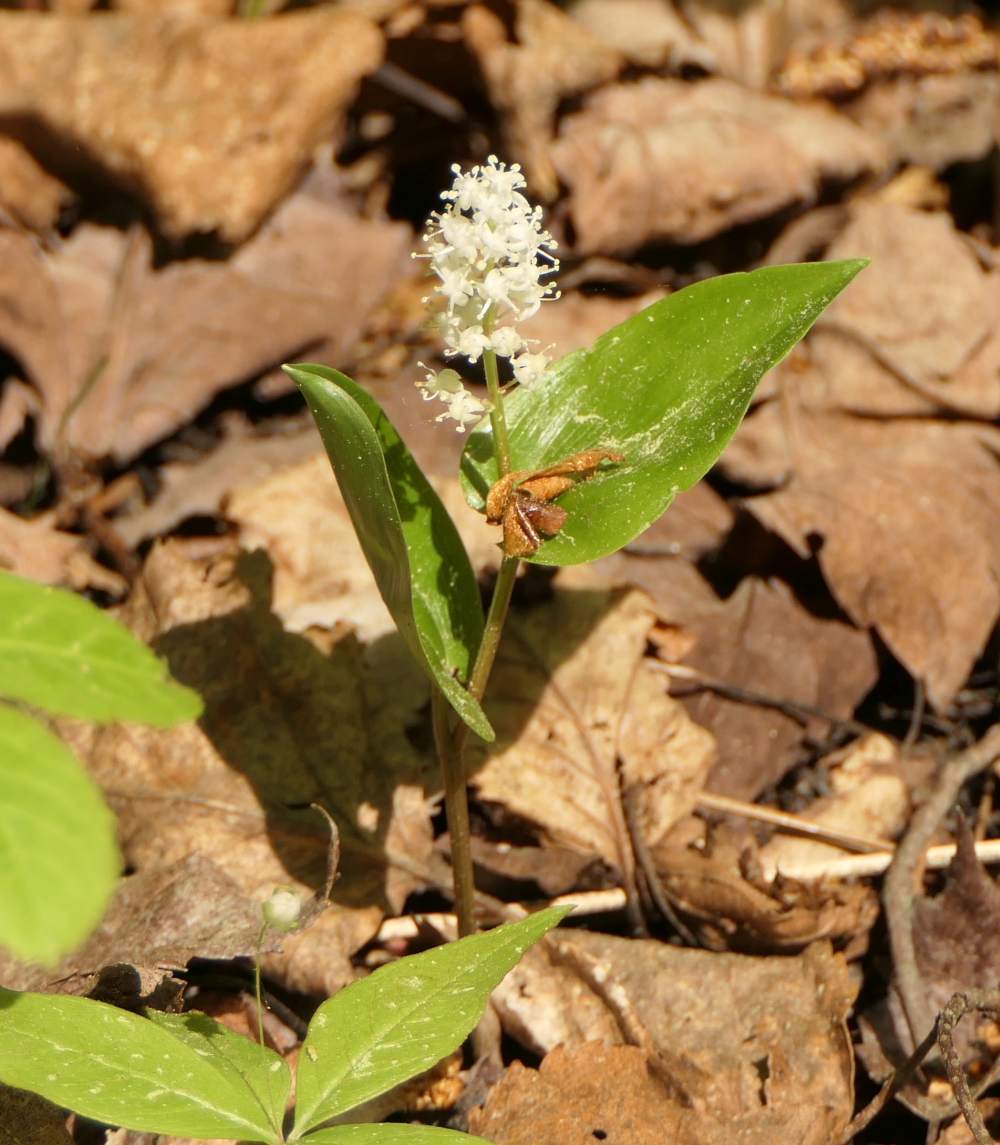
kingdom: Plantae
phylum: Tracheophyta
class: Liliopsida
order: Asparagales
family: Asparagaceae
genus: Maianthemum
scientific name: Maianthemum canadense
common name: False lily-of-the-valley
